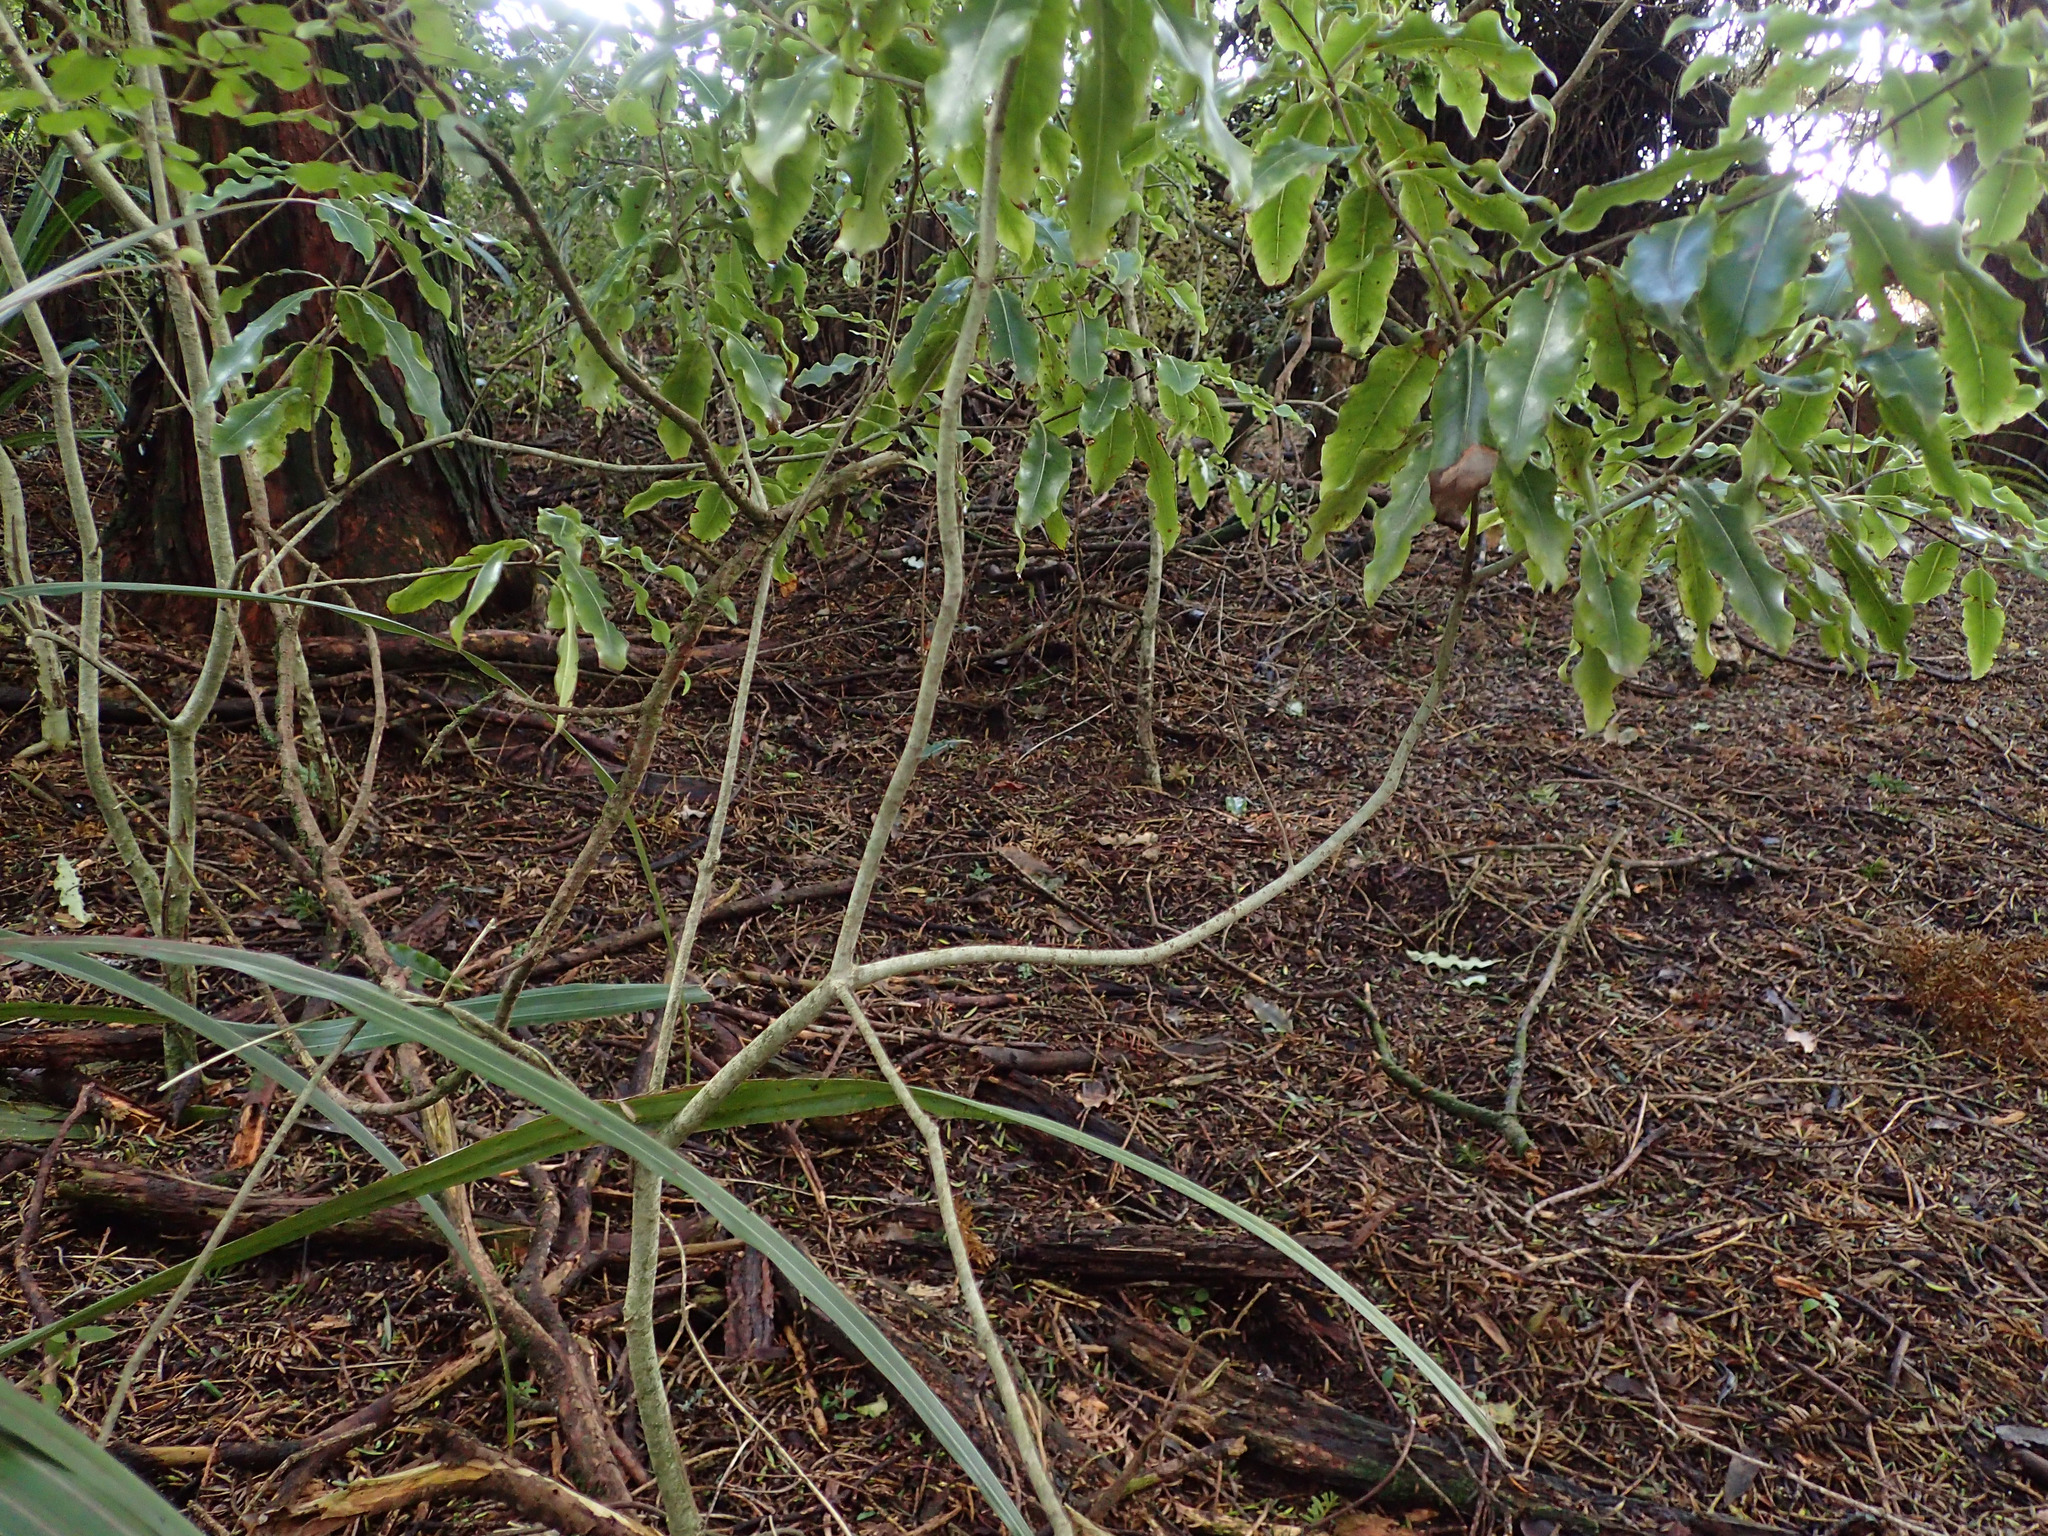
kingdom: Plantae
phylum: Tracheophyta
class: Magnoliopsida
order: Apiales
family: Pittosporaceae
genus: Pittosporum
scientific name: Pittosporum eugenioides
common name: Lemonwood
